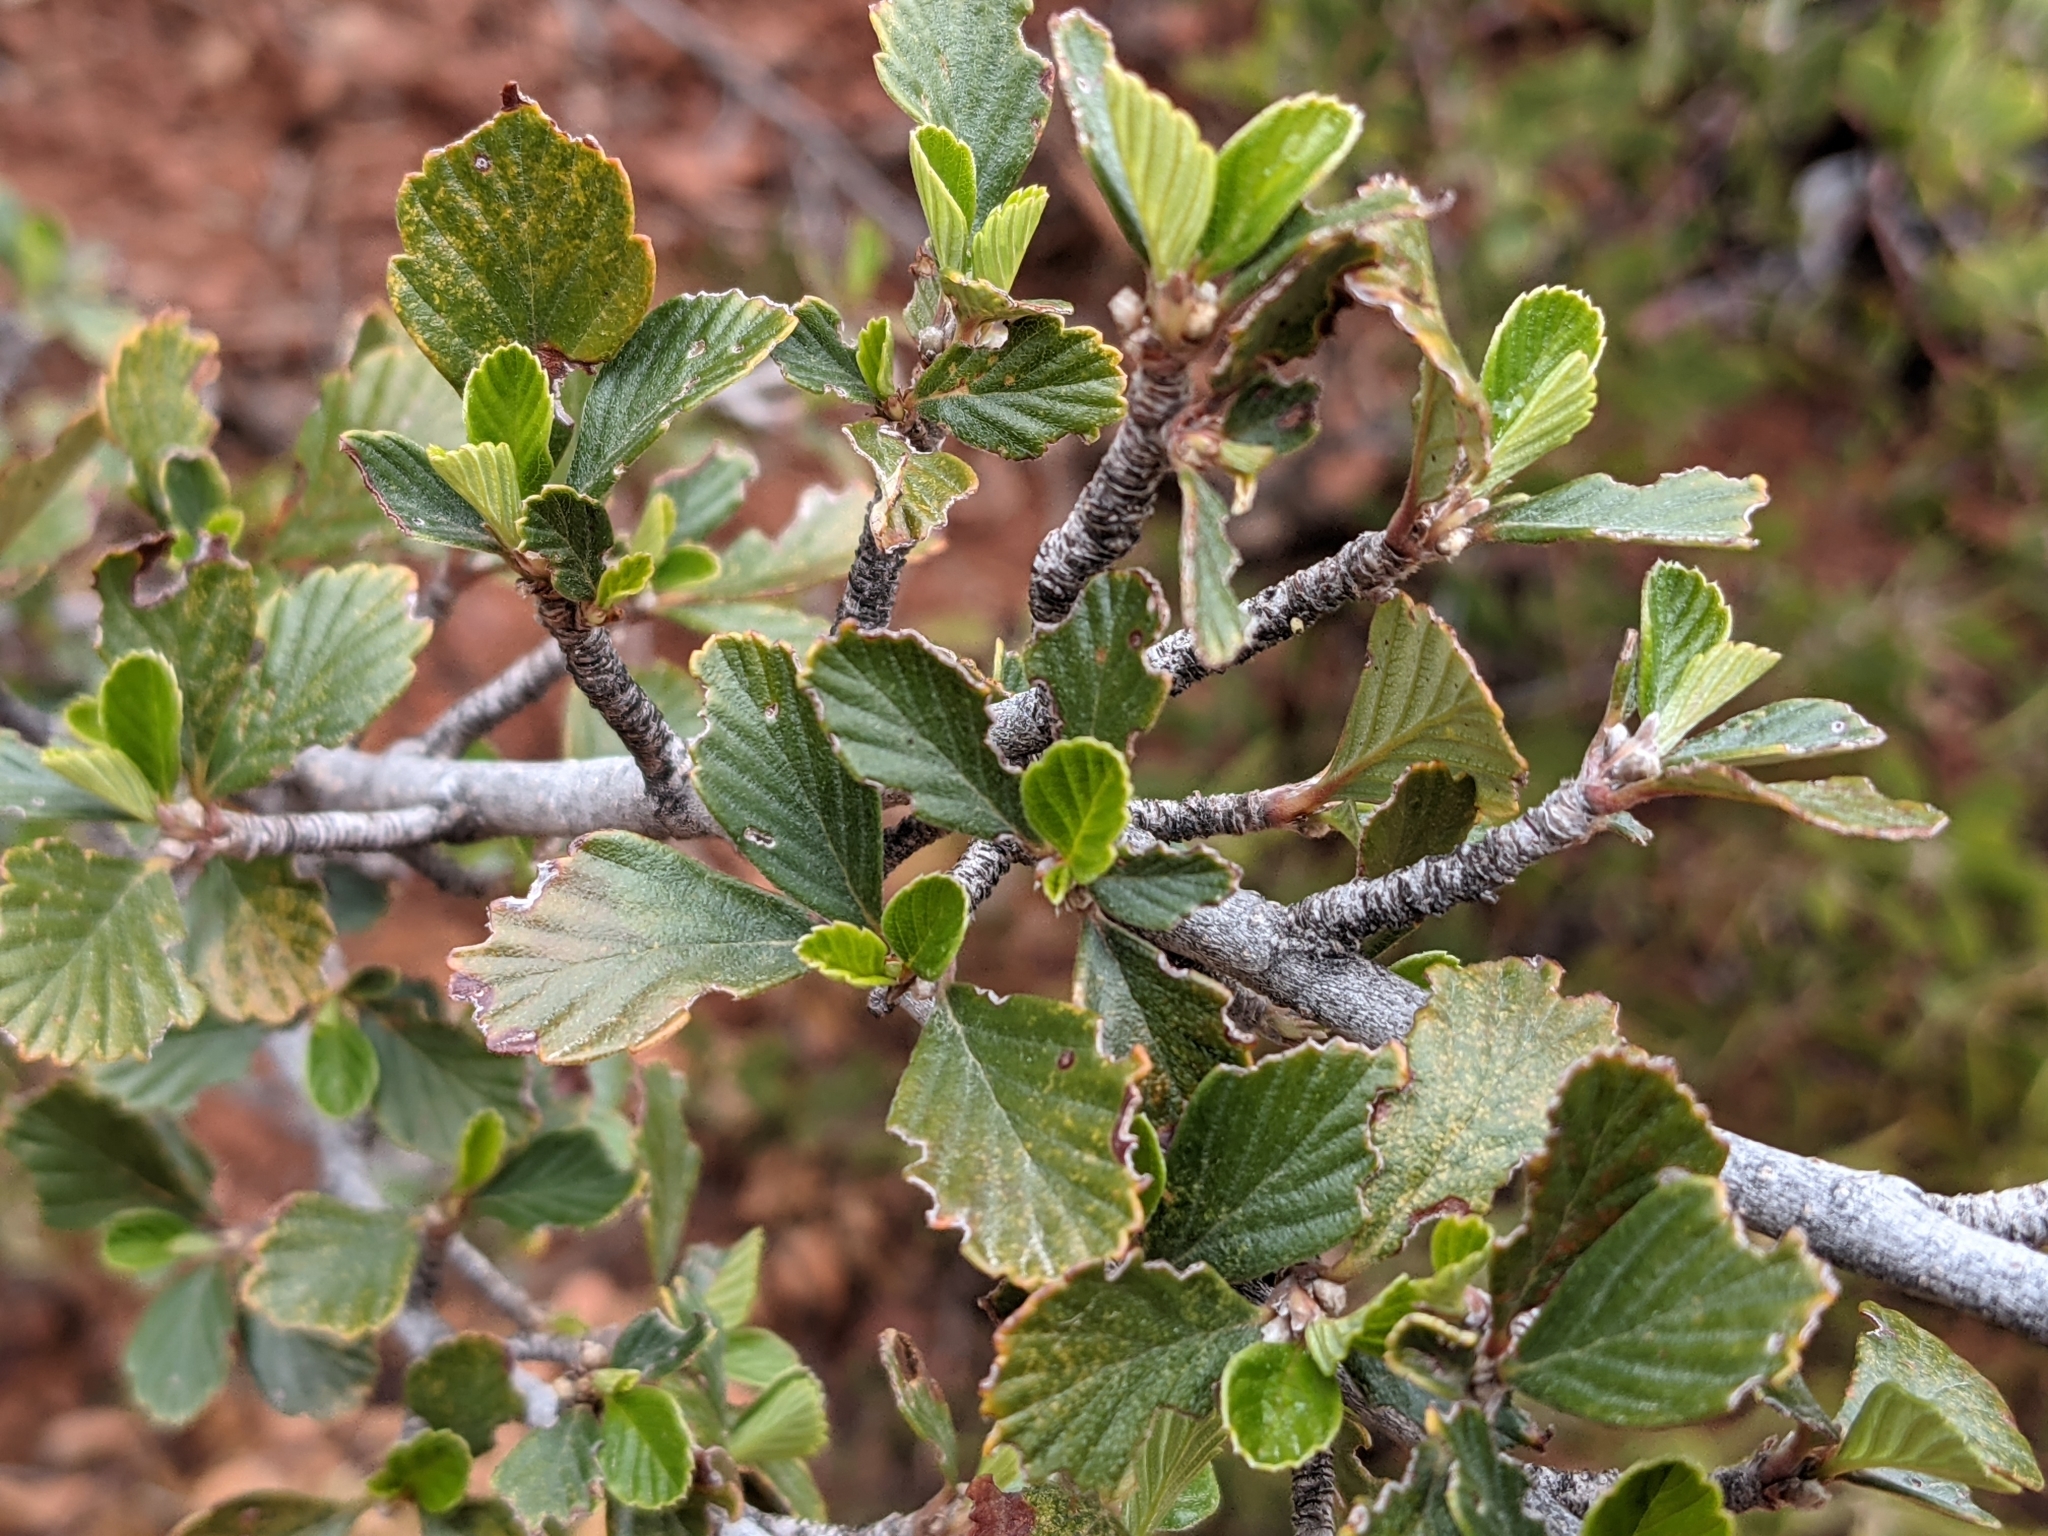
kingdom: Plantae
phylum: Tracheophyta
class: Magnoliopsida
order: Rosales
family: Rosaceae
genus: Cercocarpus
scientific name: Cercocarpus montanus
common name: Alder-leaf cercocarpus
